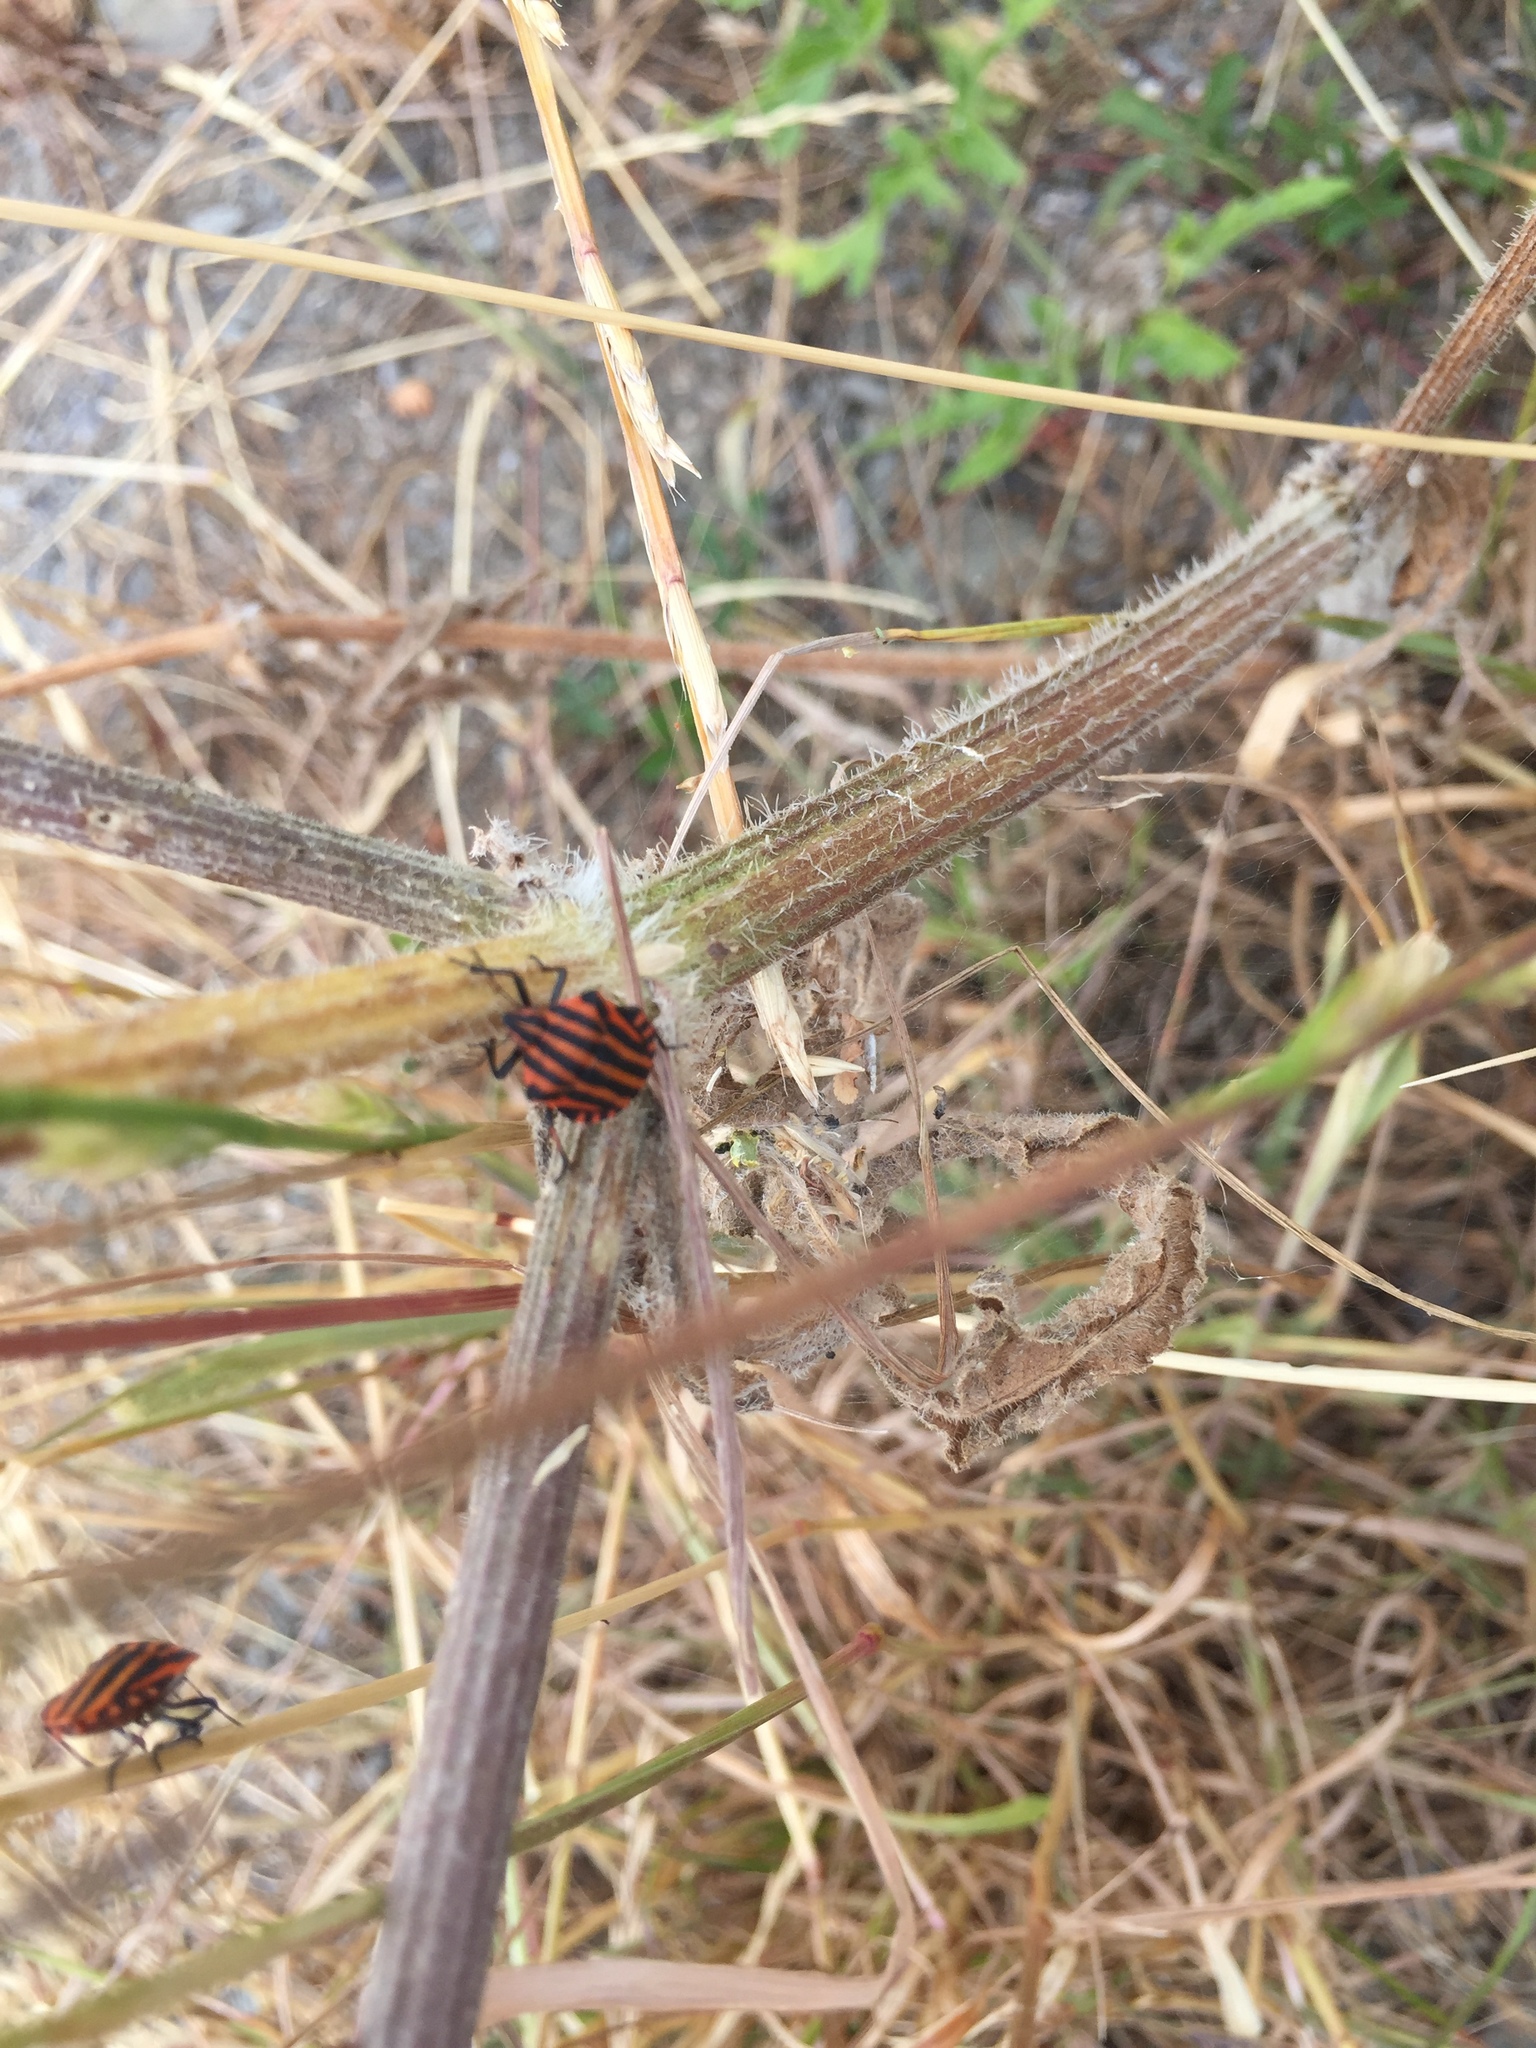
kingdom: Animalia
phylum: Arthropoda
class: Insecta
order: Hemiptera
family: Pentatomidae
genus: Graphosoma
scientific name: Graphosoma italicum
